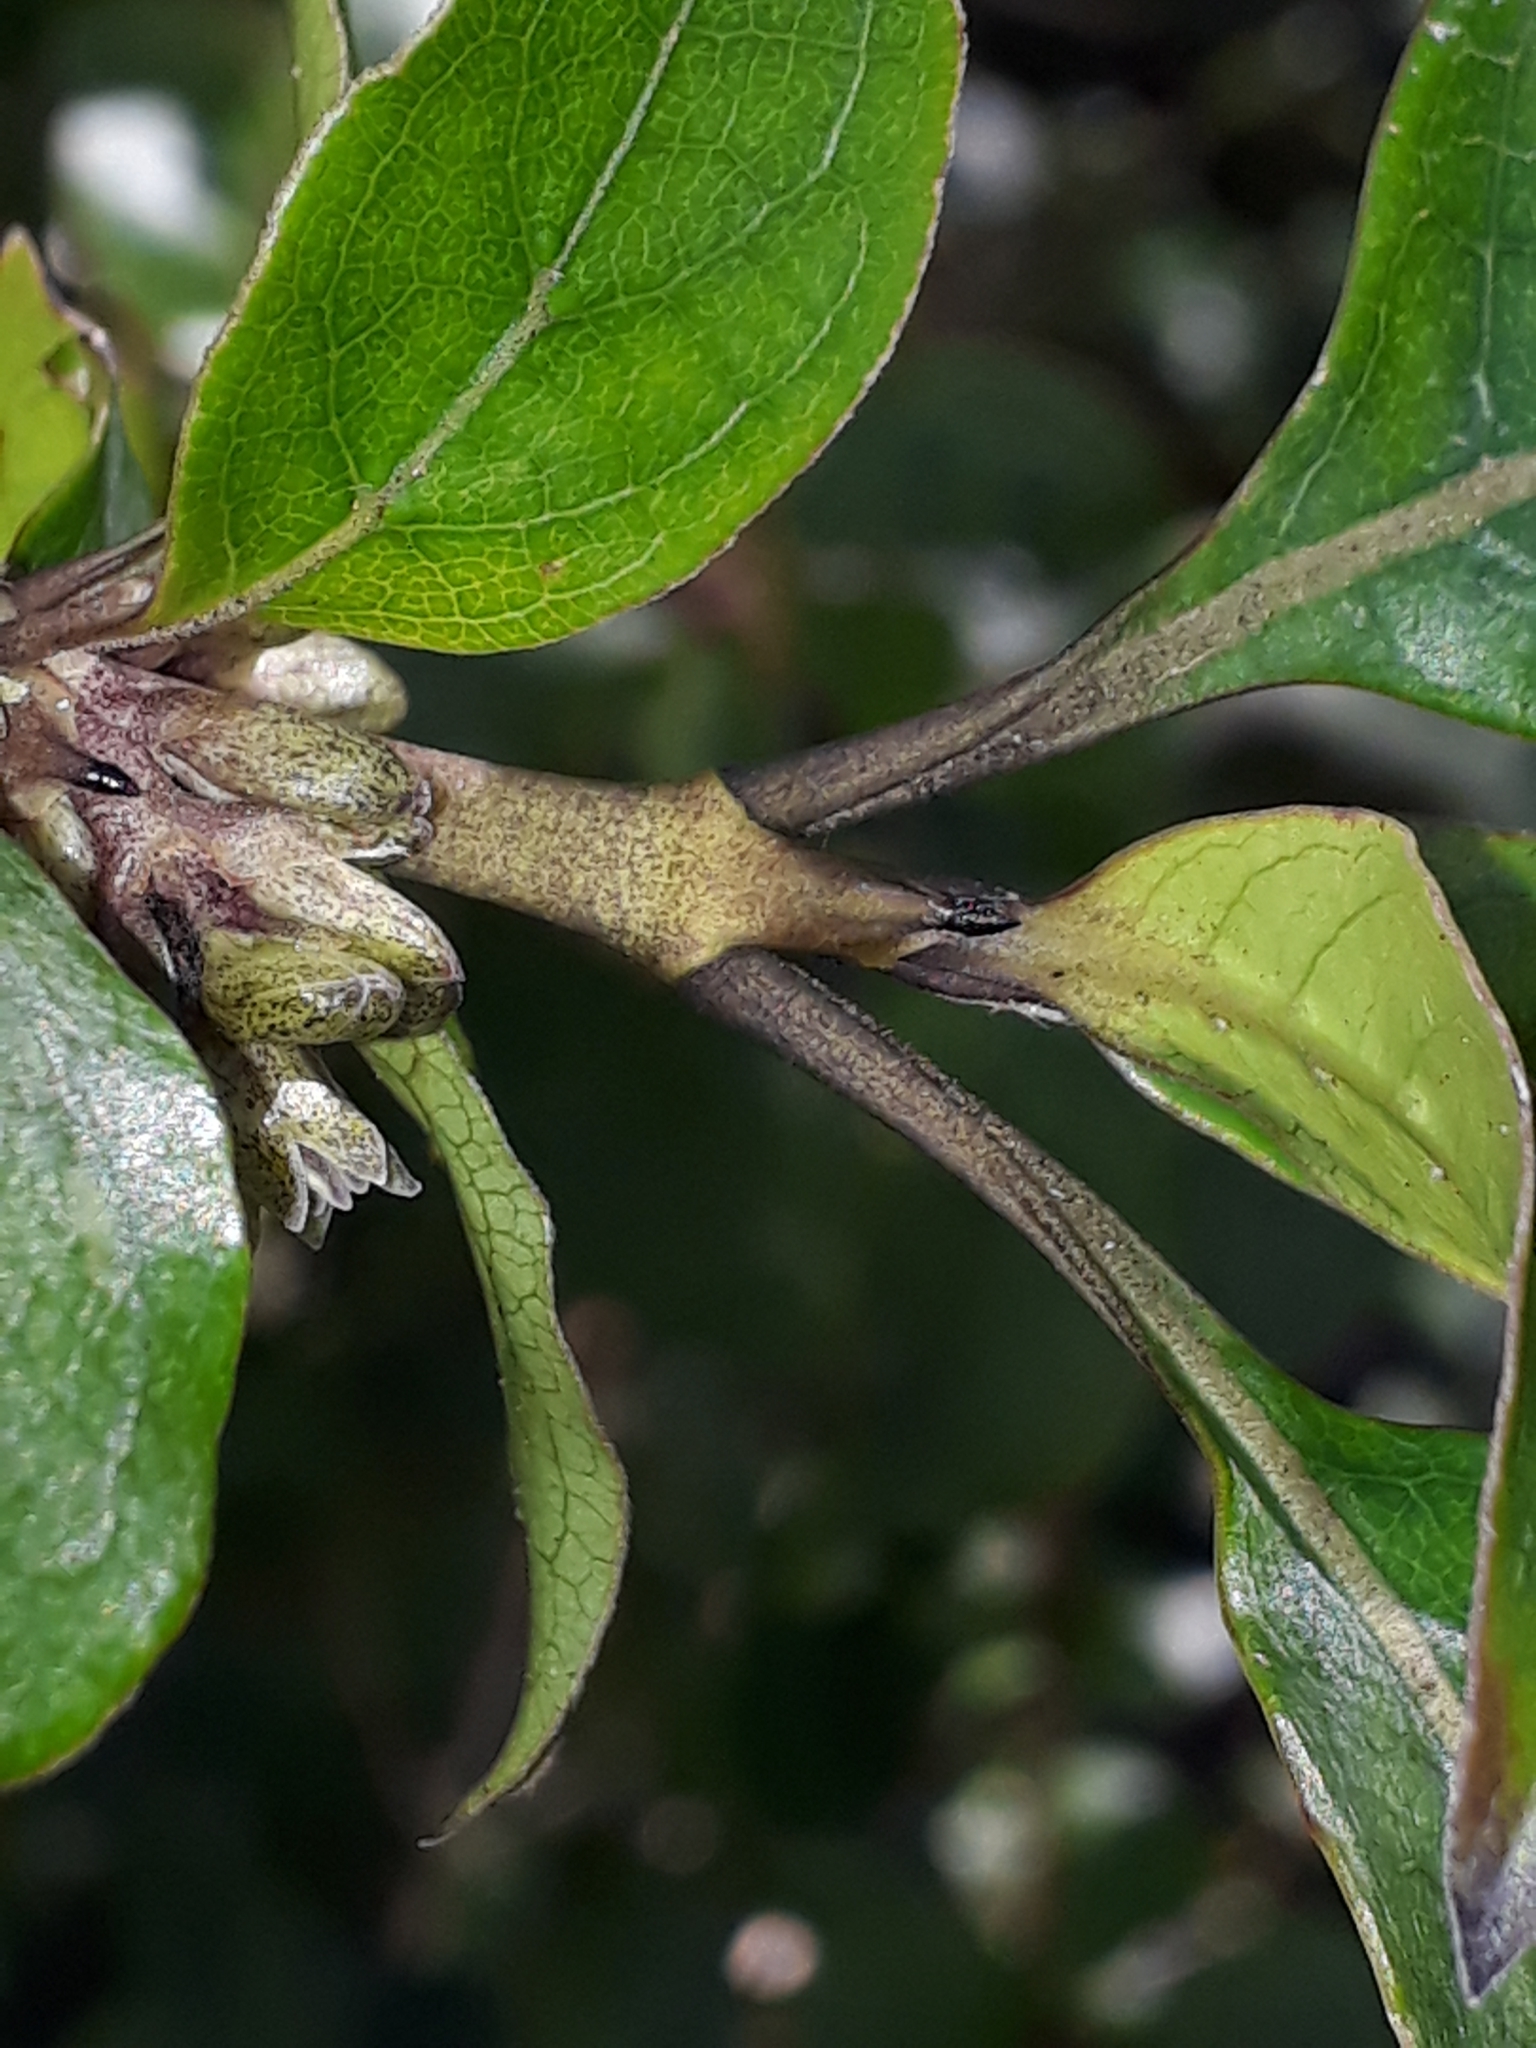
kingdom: Plantae
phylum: Tracheophyta
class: Magnoliopsida
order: Gentianales
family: Rubiaceae
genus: Coprosma
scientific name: Coprosma tenuifolia
